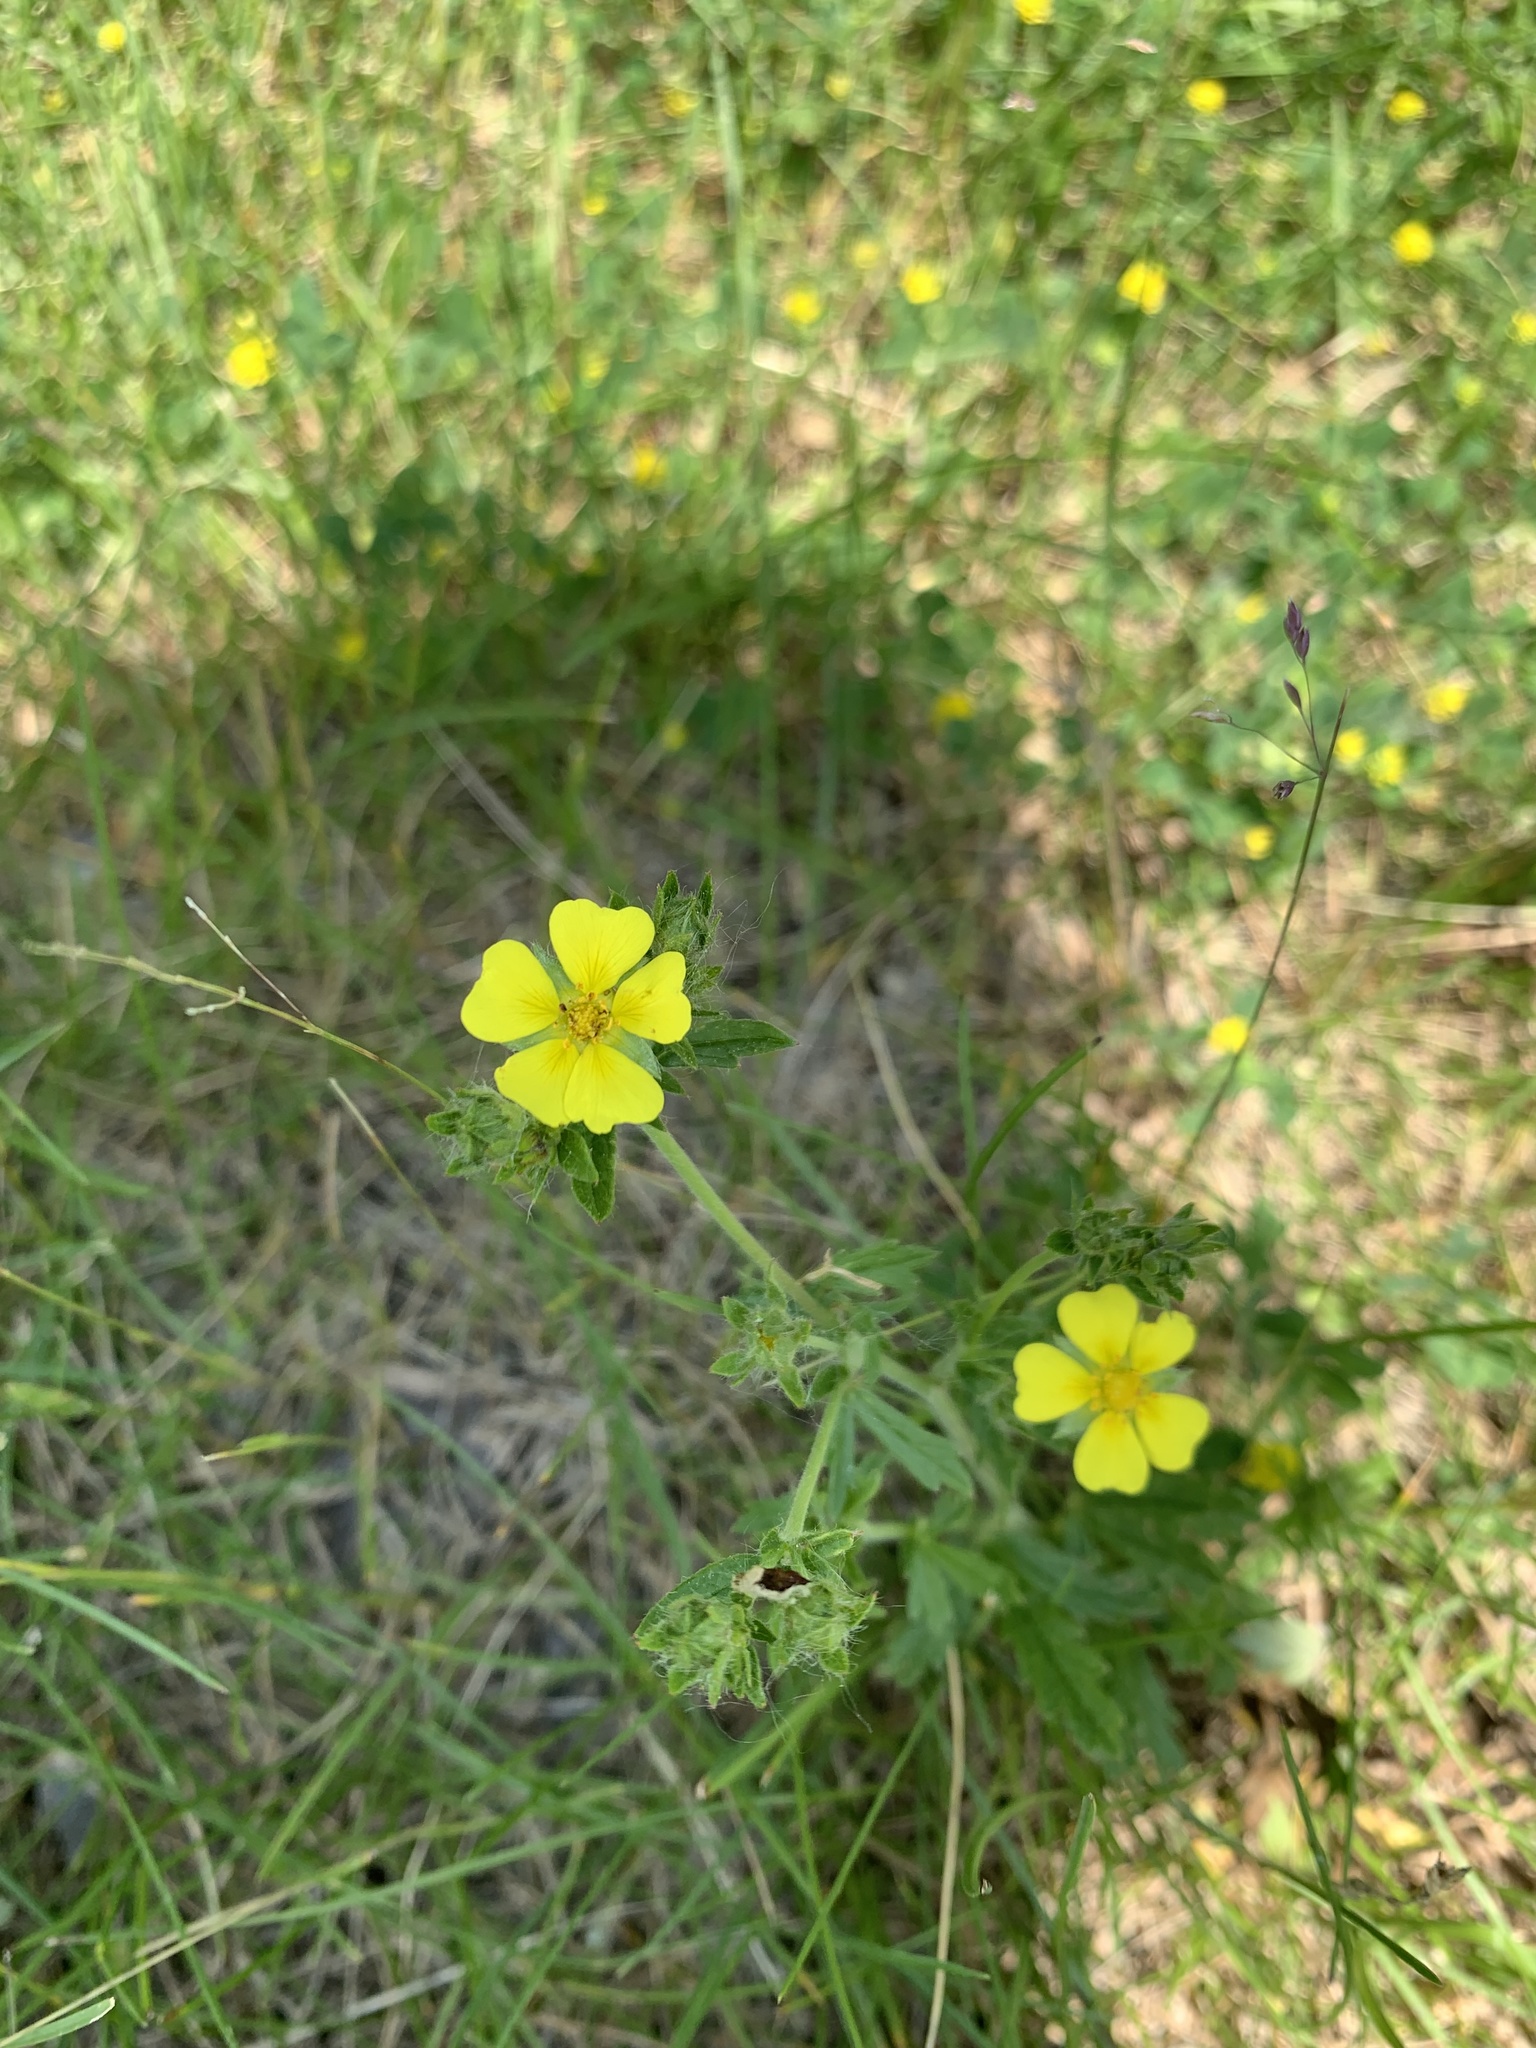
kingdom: Plantae
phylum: Tracheophyta
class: Magnoliopsida
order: Rosales
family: Rosaceae
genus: Potentilla
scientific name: Potentilla recta
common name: Sulphur cinquefoil
